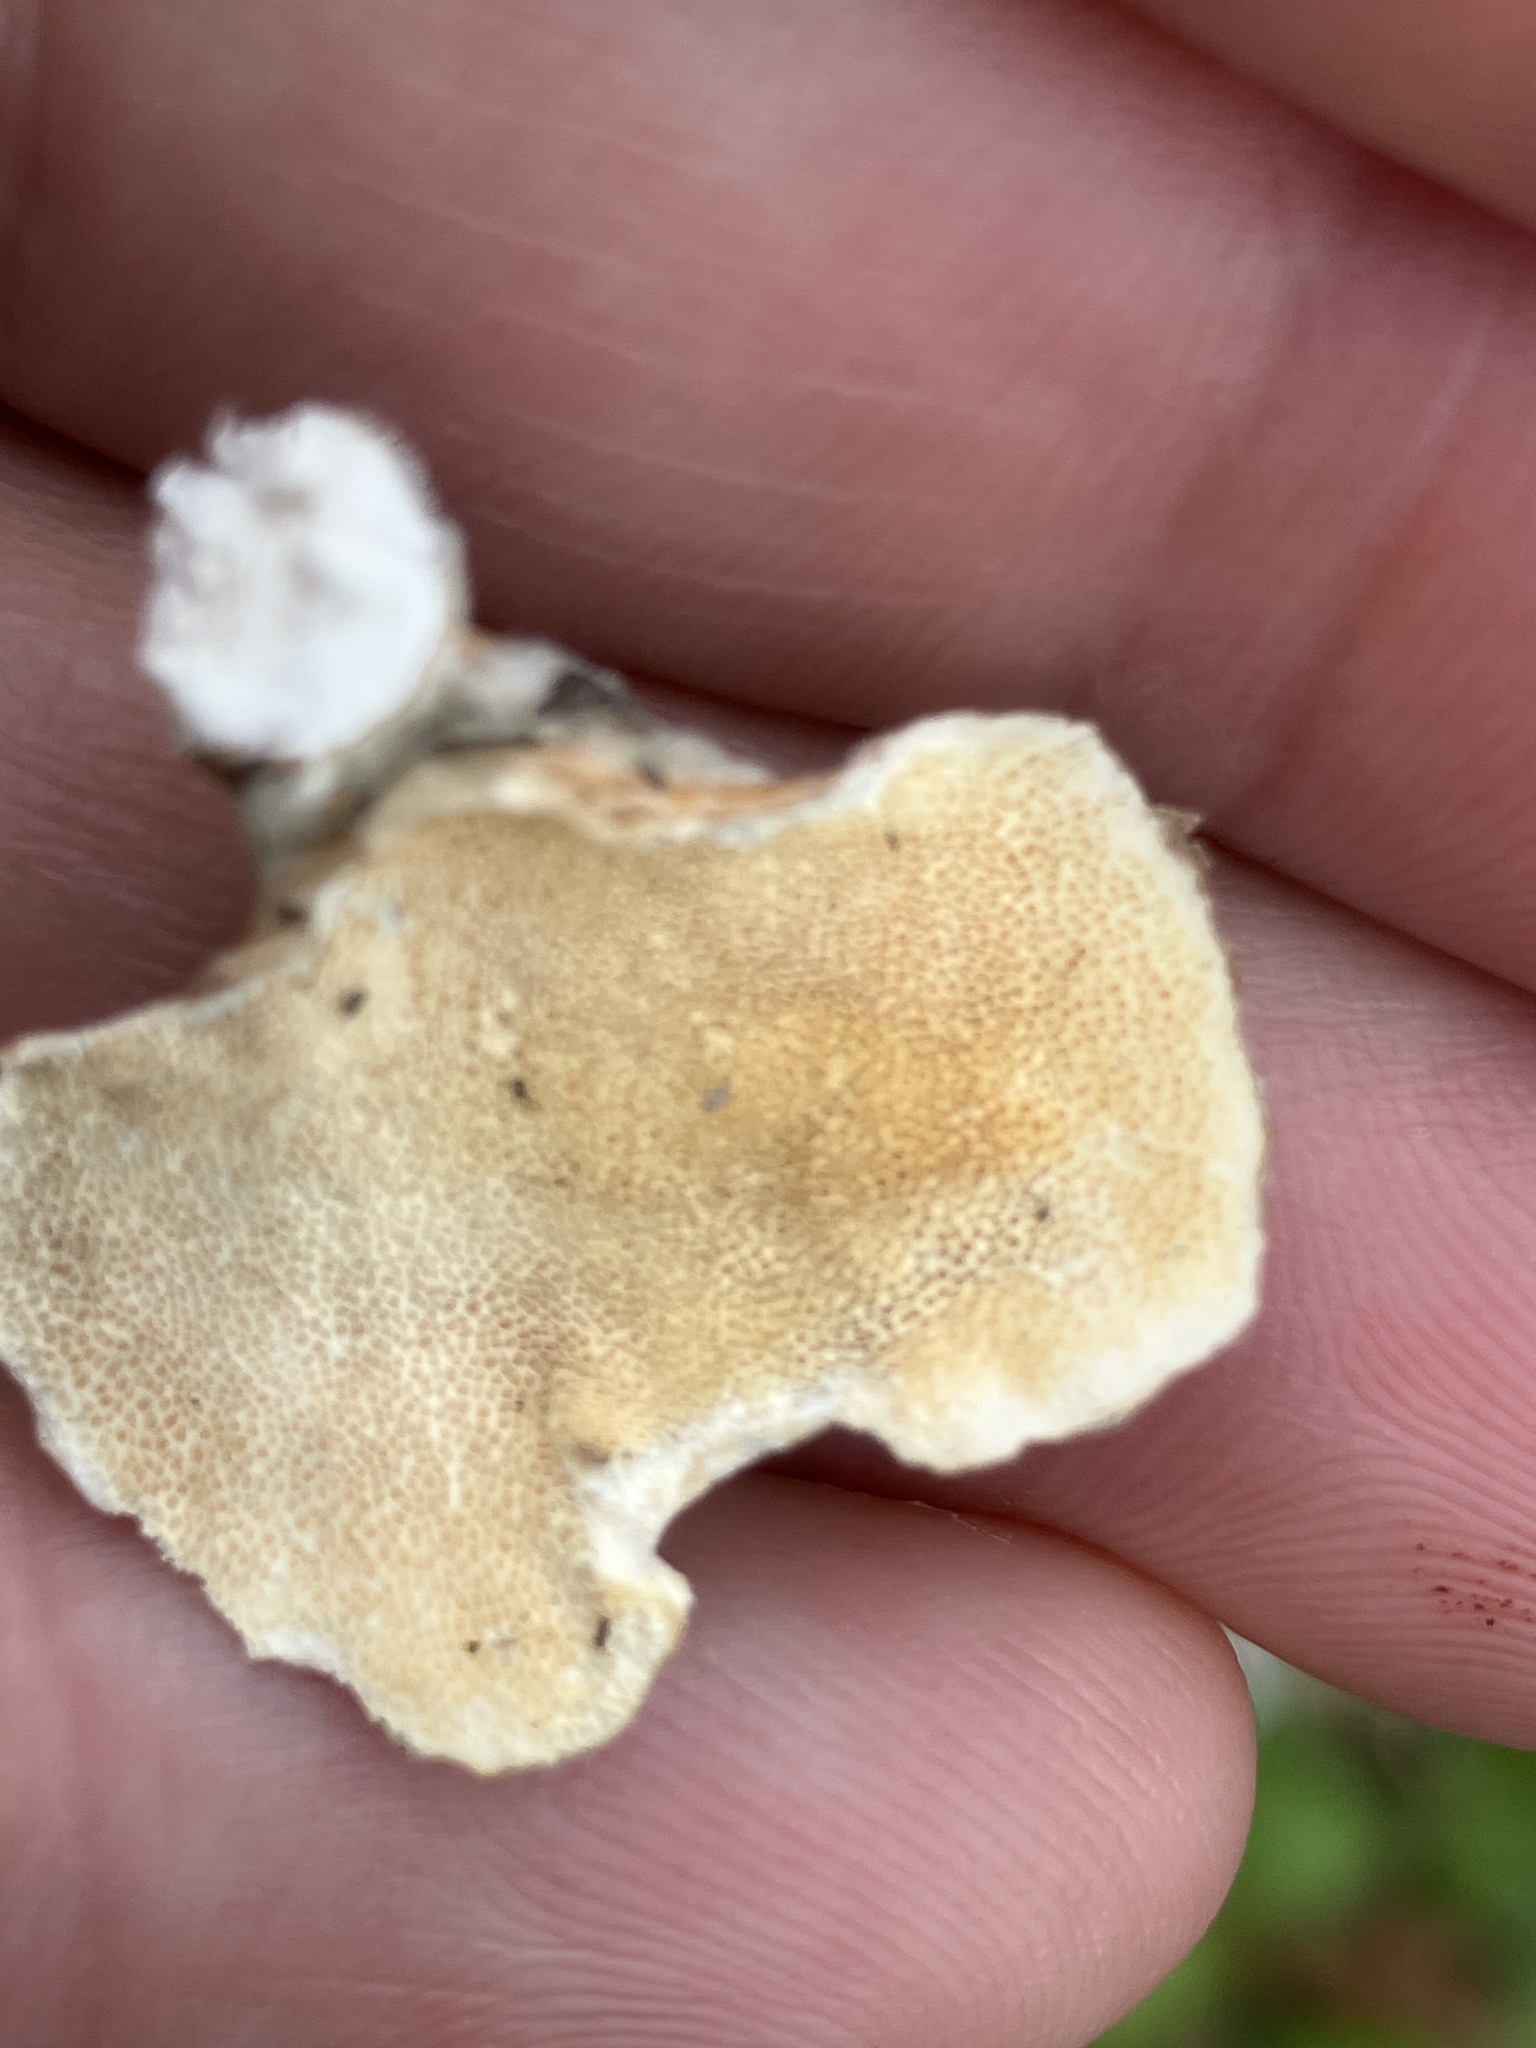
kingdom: Fungi
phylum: Basidiomycota
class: Agaricomycetes
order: Polyporales
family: Polyporaceae
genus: Trametes
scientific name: Trametes versicolor
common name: Turkeytail
